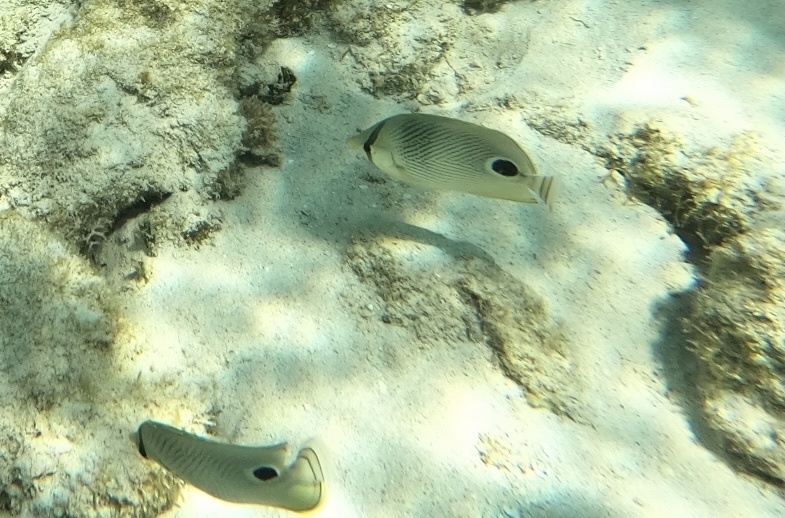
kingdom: Animalia
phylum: Chordata
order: Perciformes
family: Chaetodontidae
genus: Chaetodon
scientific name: Chaetodon capistratus
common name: Kete
